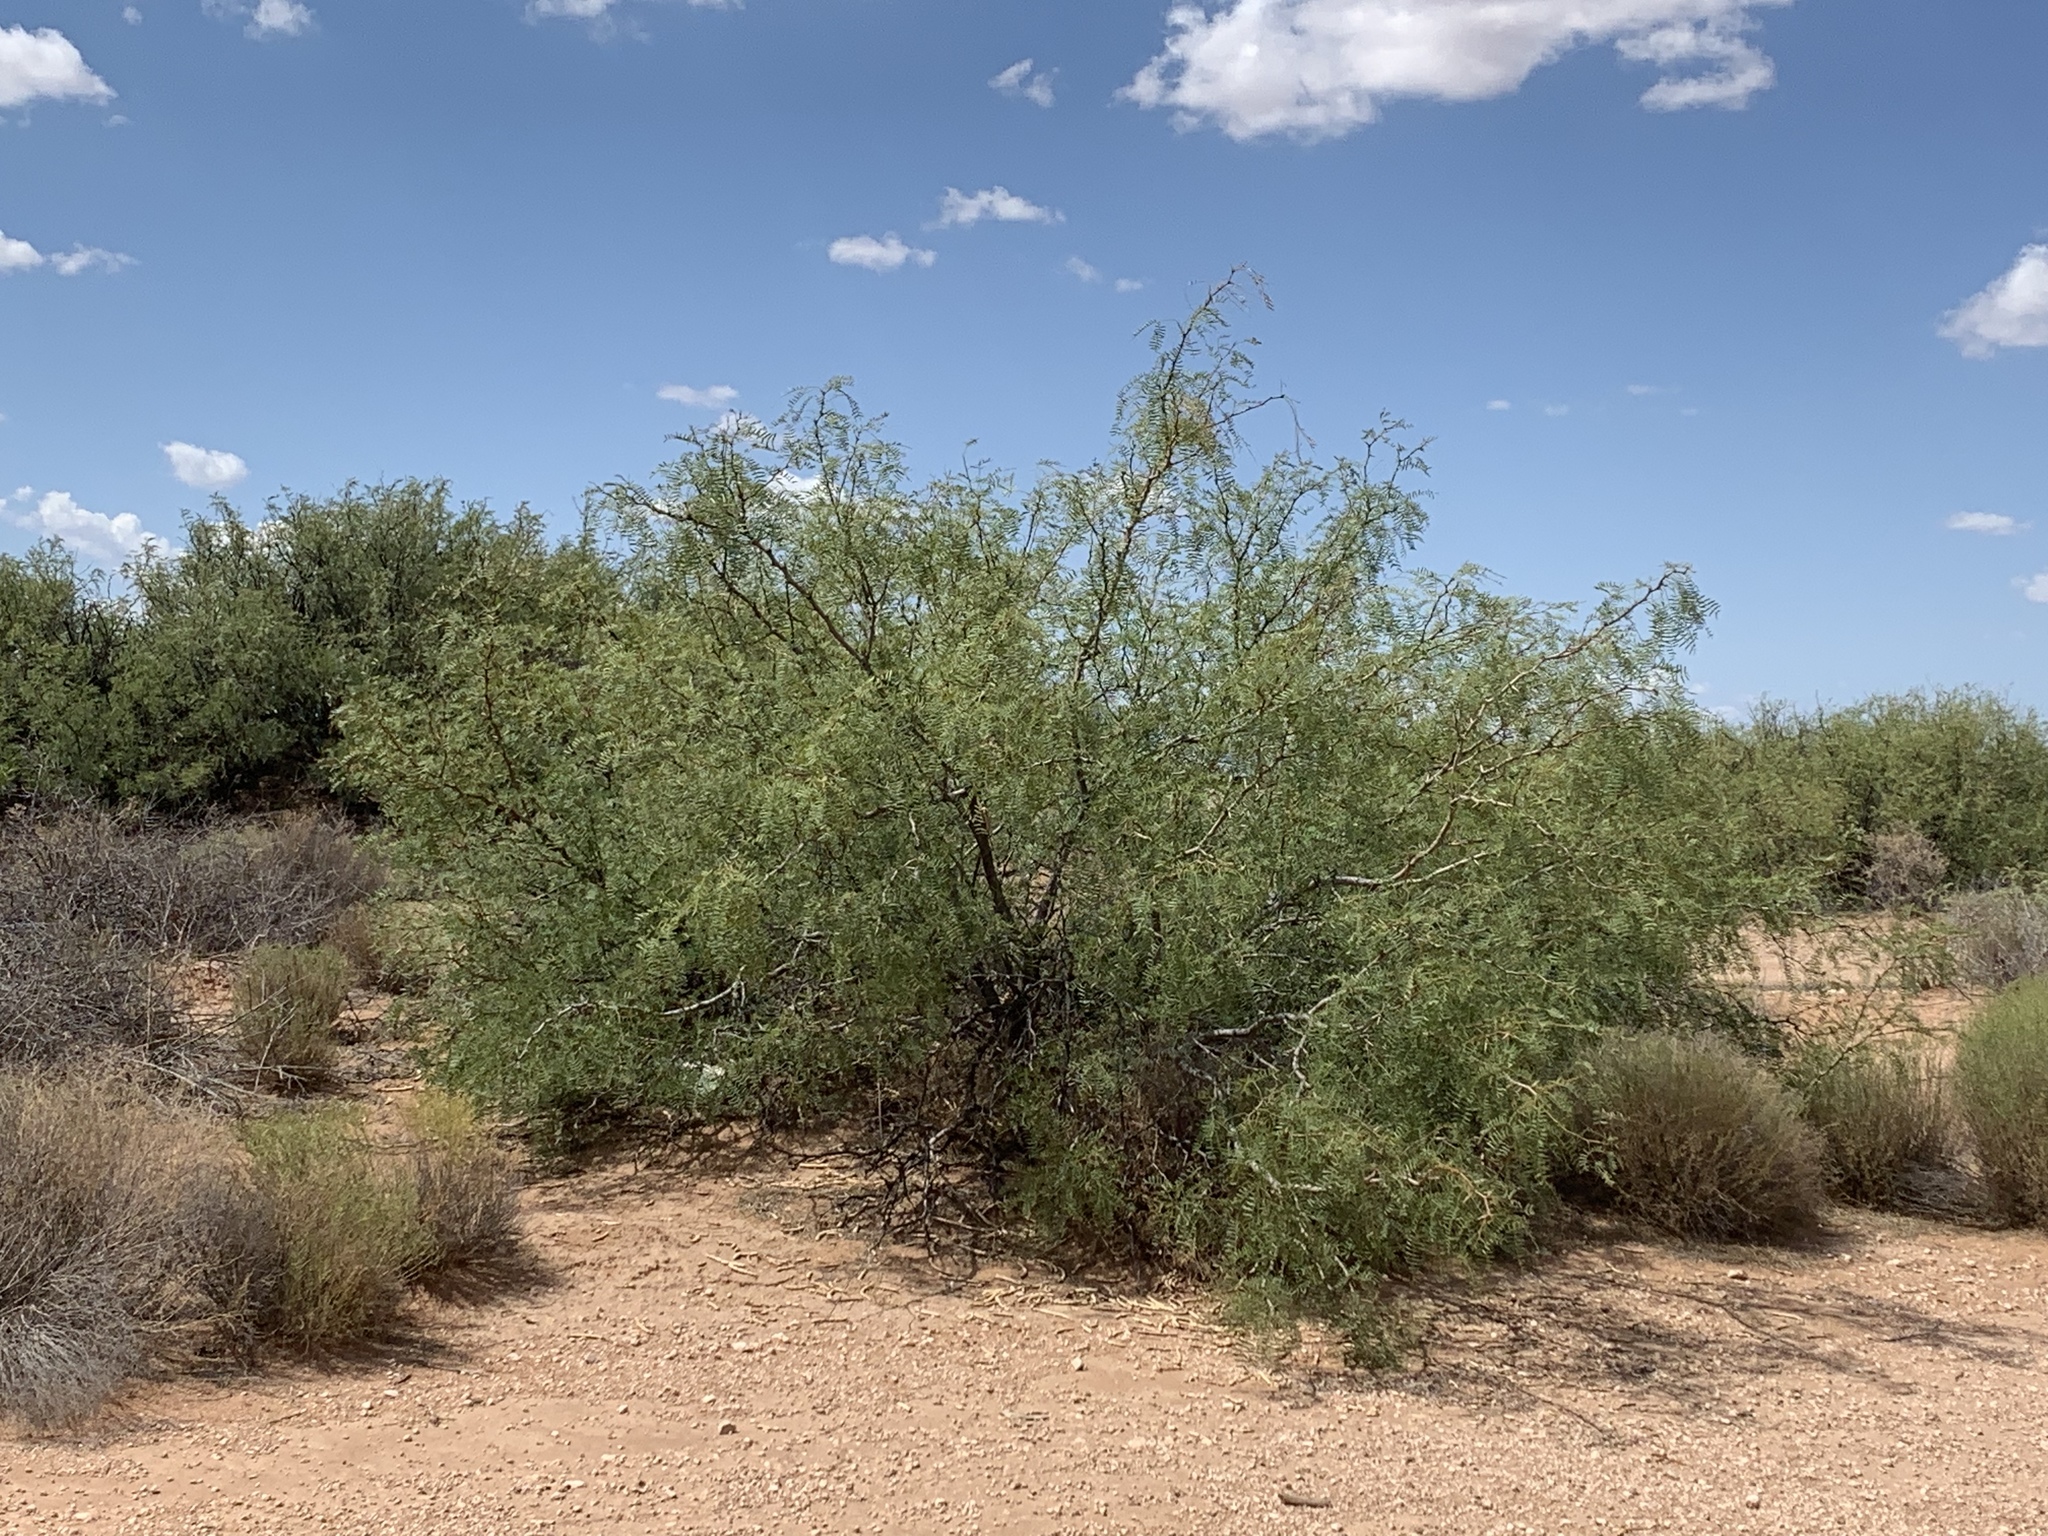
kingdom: Plantae
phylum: Tracheophyta
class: Magnoliopsida
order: Fabales
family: Fabaceae
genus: Prosopis
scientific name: Prosopis glandulosa
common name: Honey mesquite
